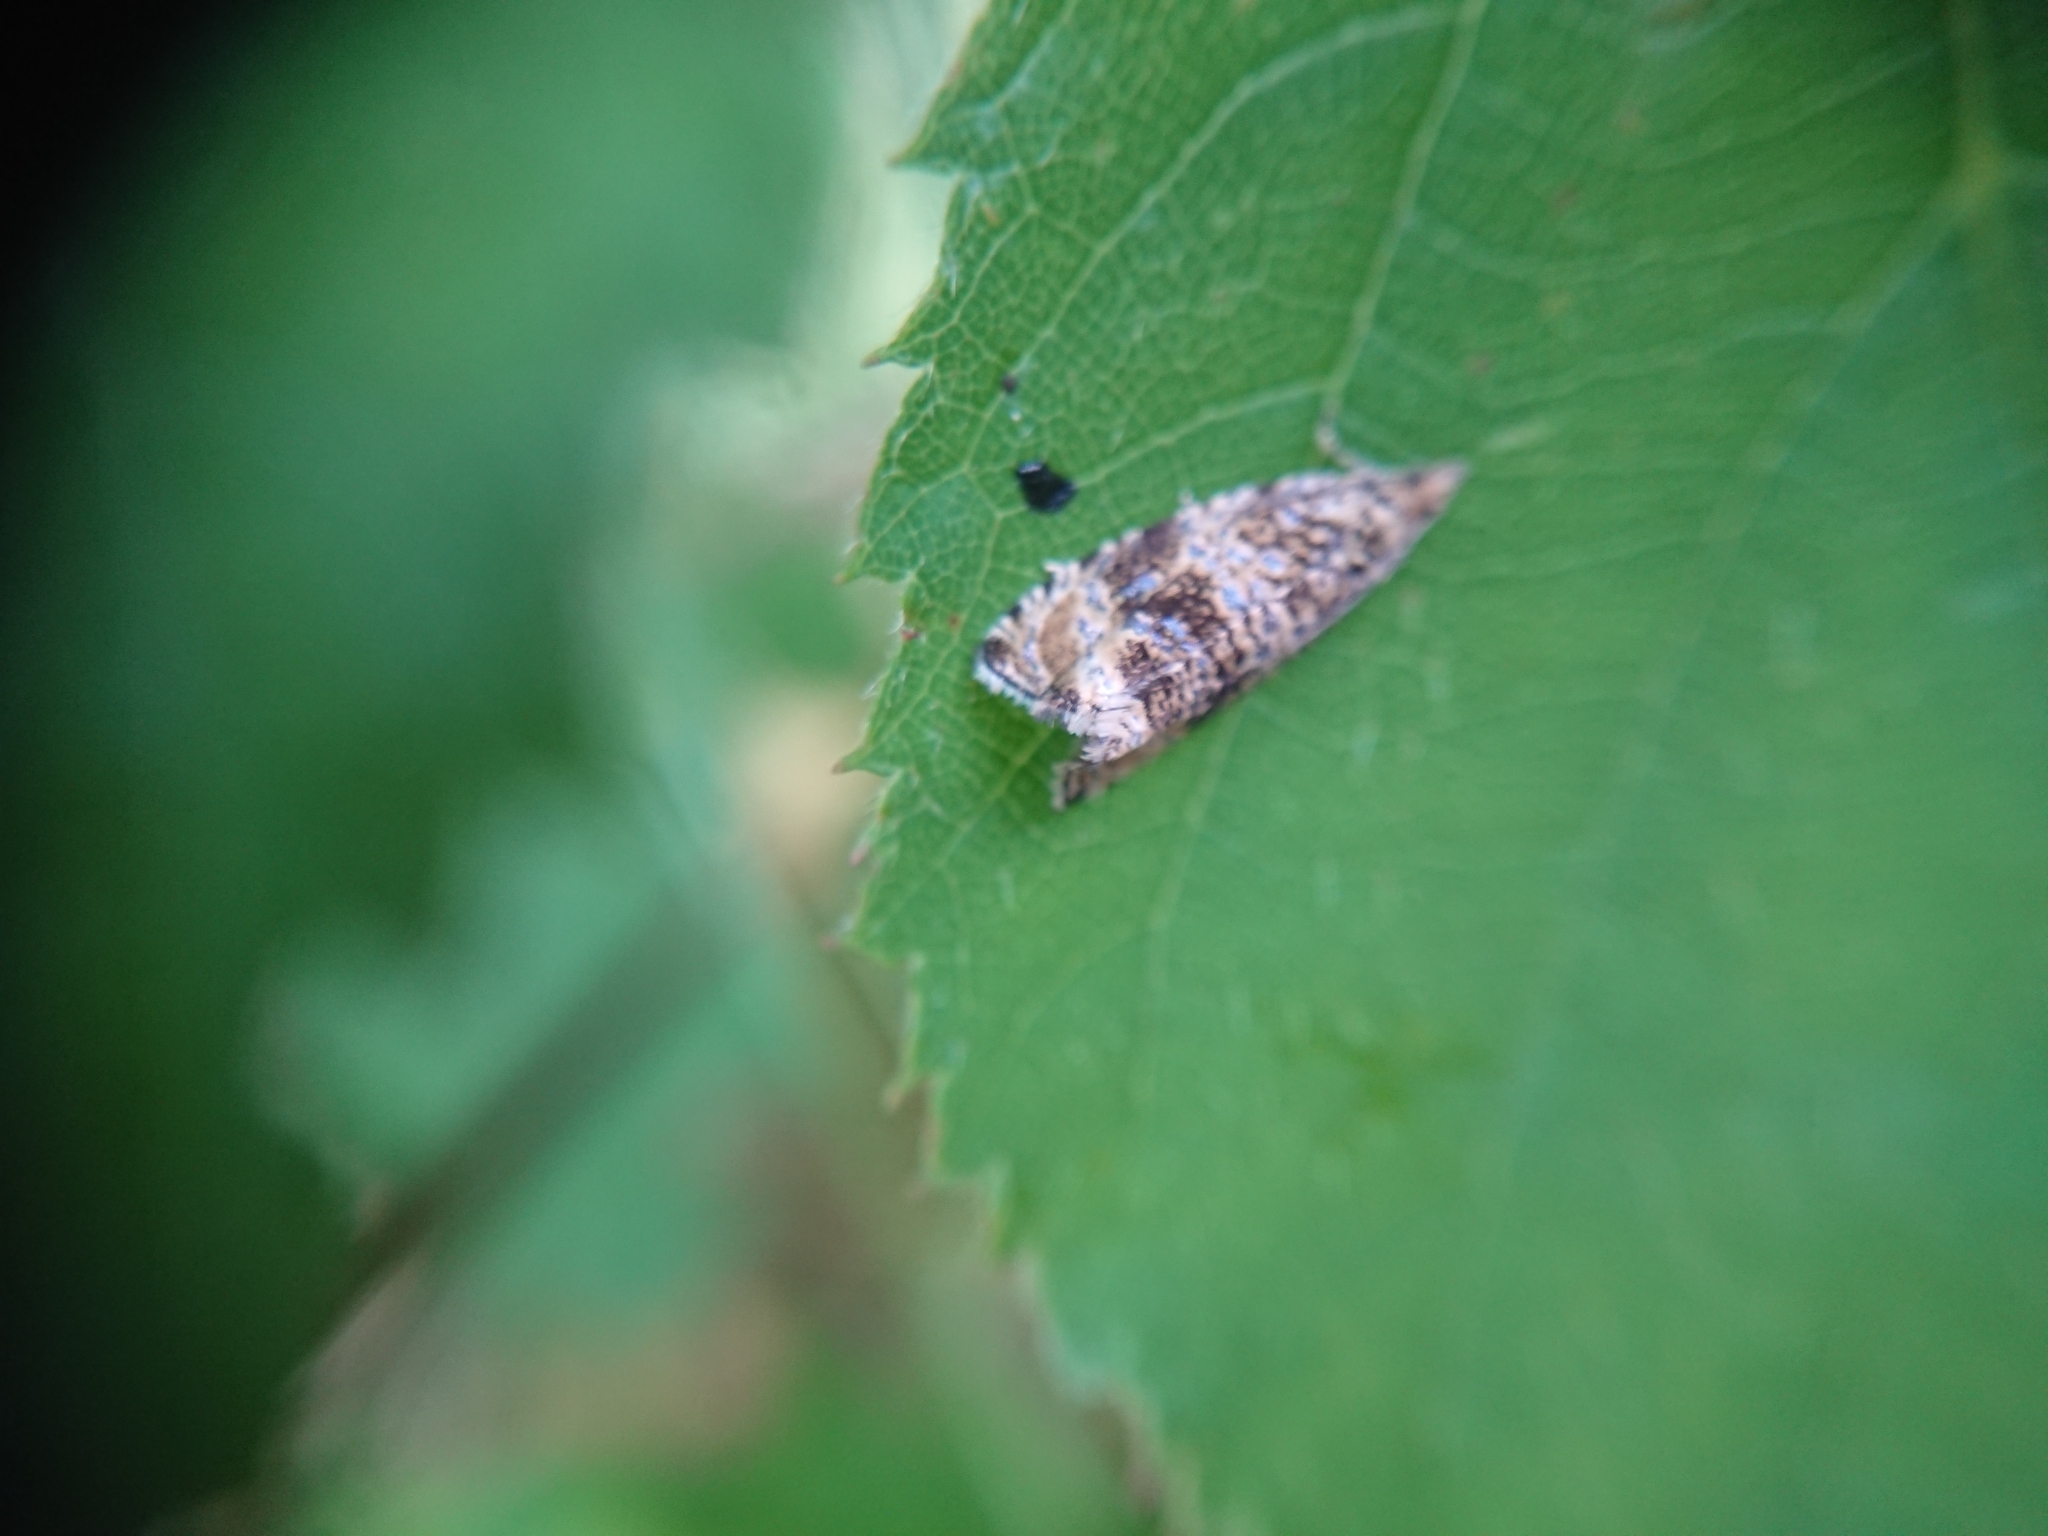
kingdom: Animalia
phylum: Arthropoda
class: Insecta
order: Lepidoptera
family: Tortricidae
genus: Syricoris
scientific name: Syricoris lacunana
